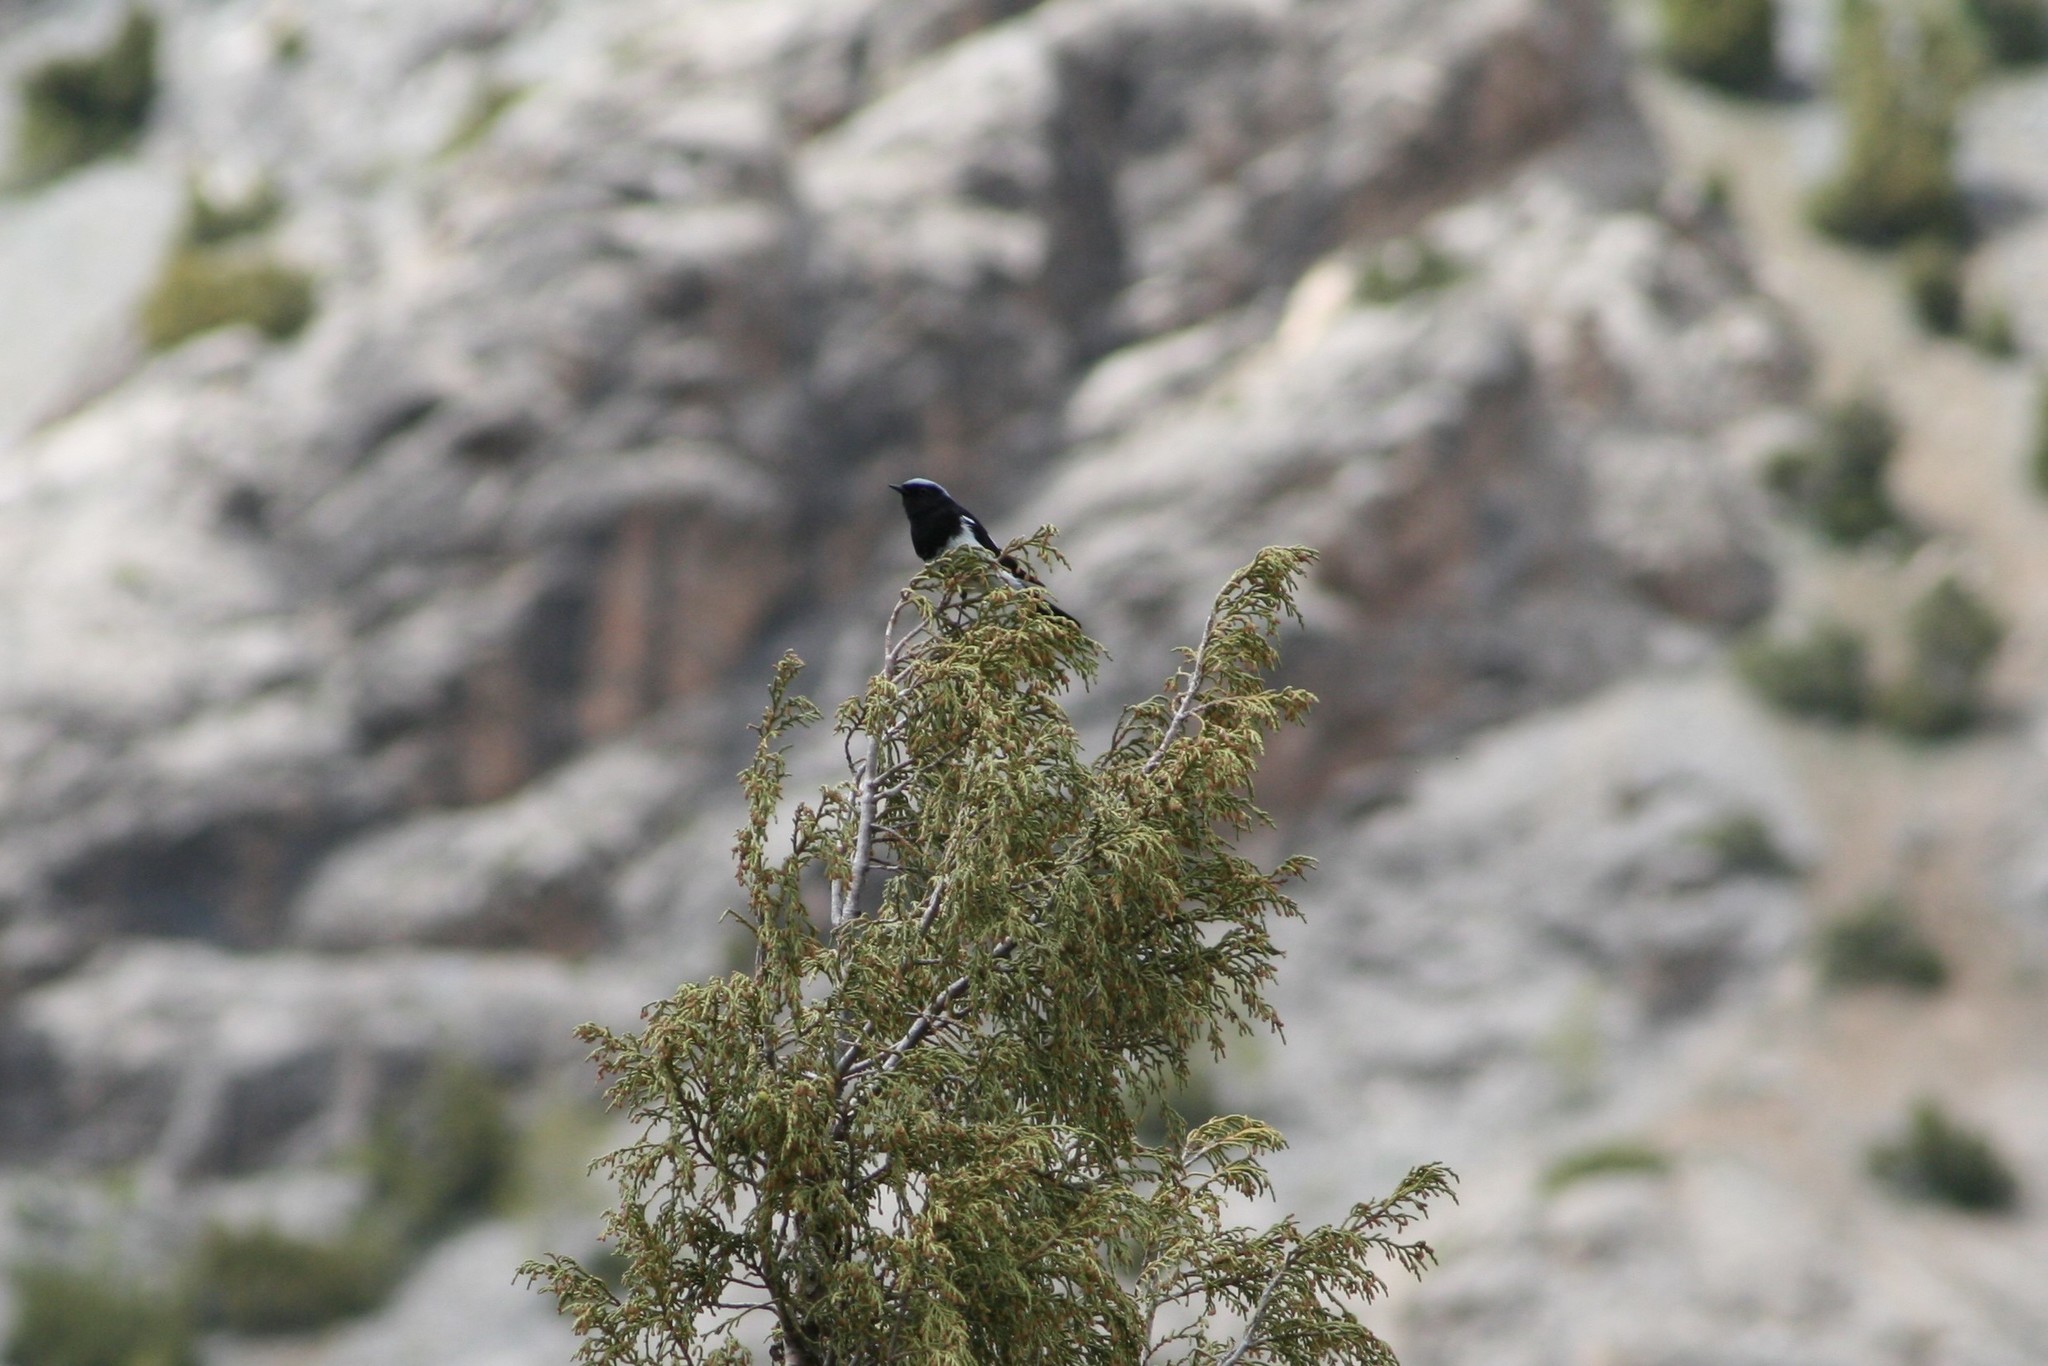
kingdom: Animalia
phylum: Chordata
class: Aves
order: Passeriformes
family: Muscicapidae
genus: Phoenicurus
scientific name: Phoenicurus coeruleocephala
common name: Blue-capped redstart
